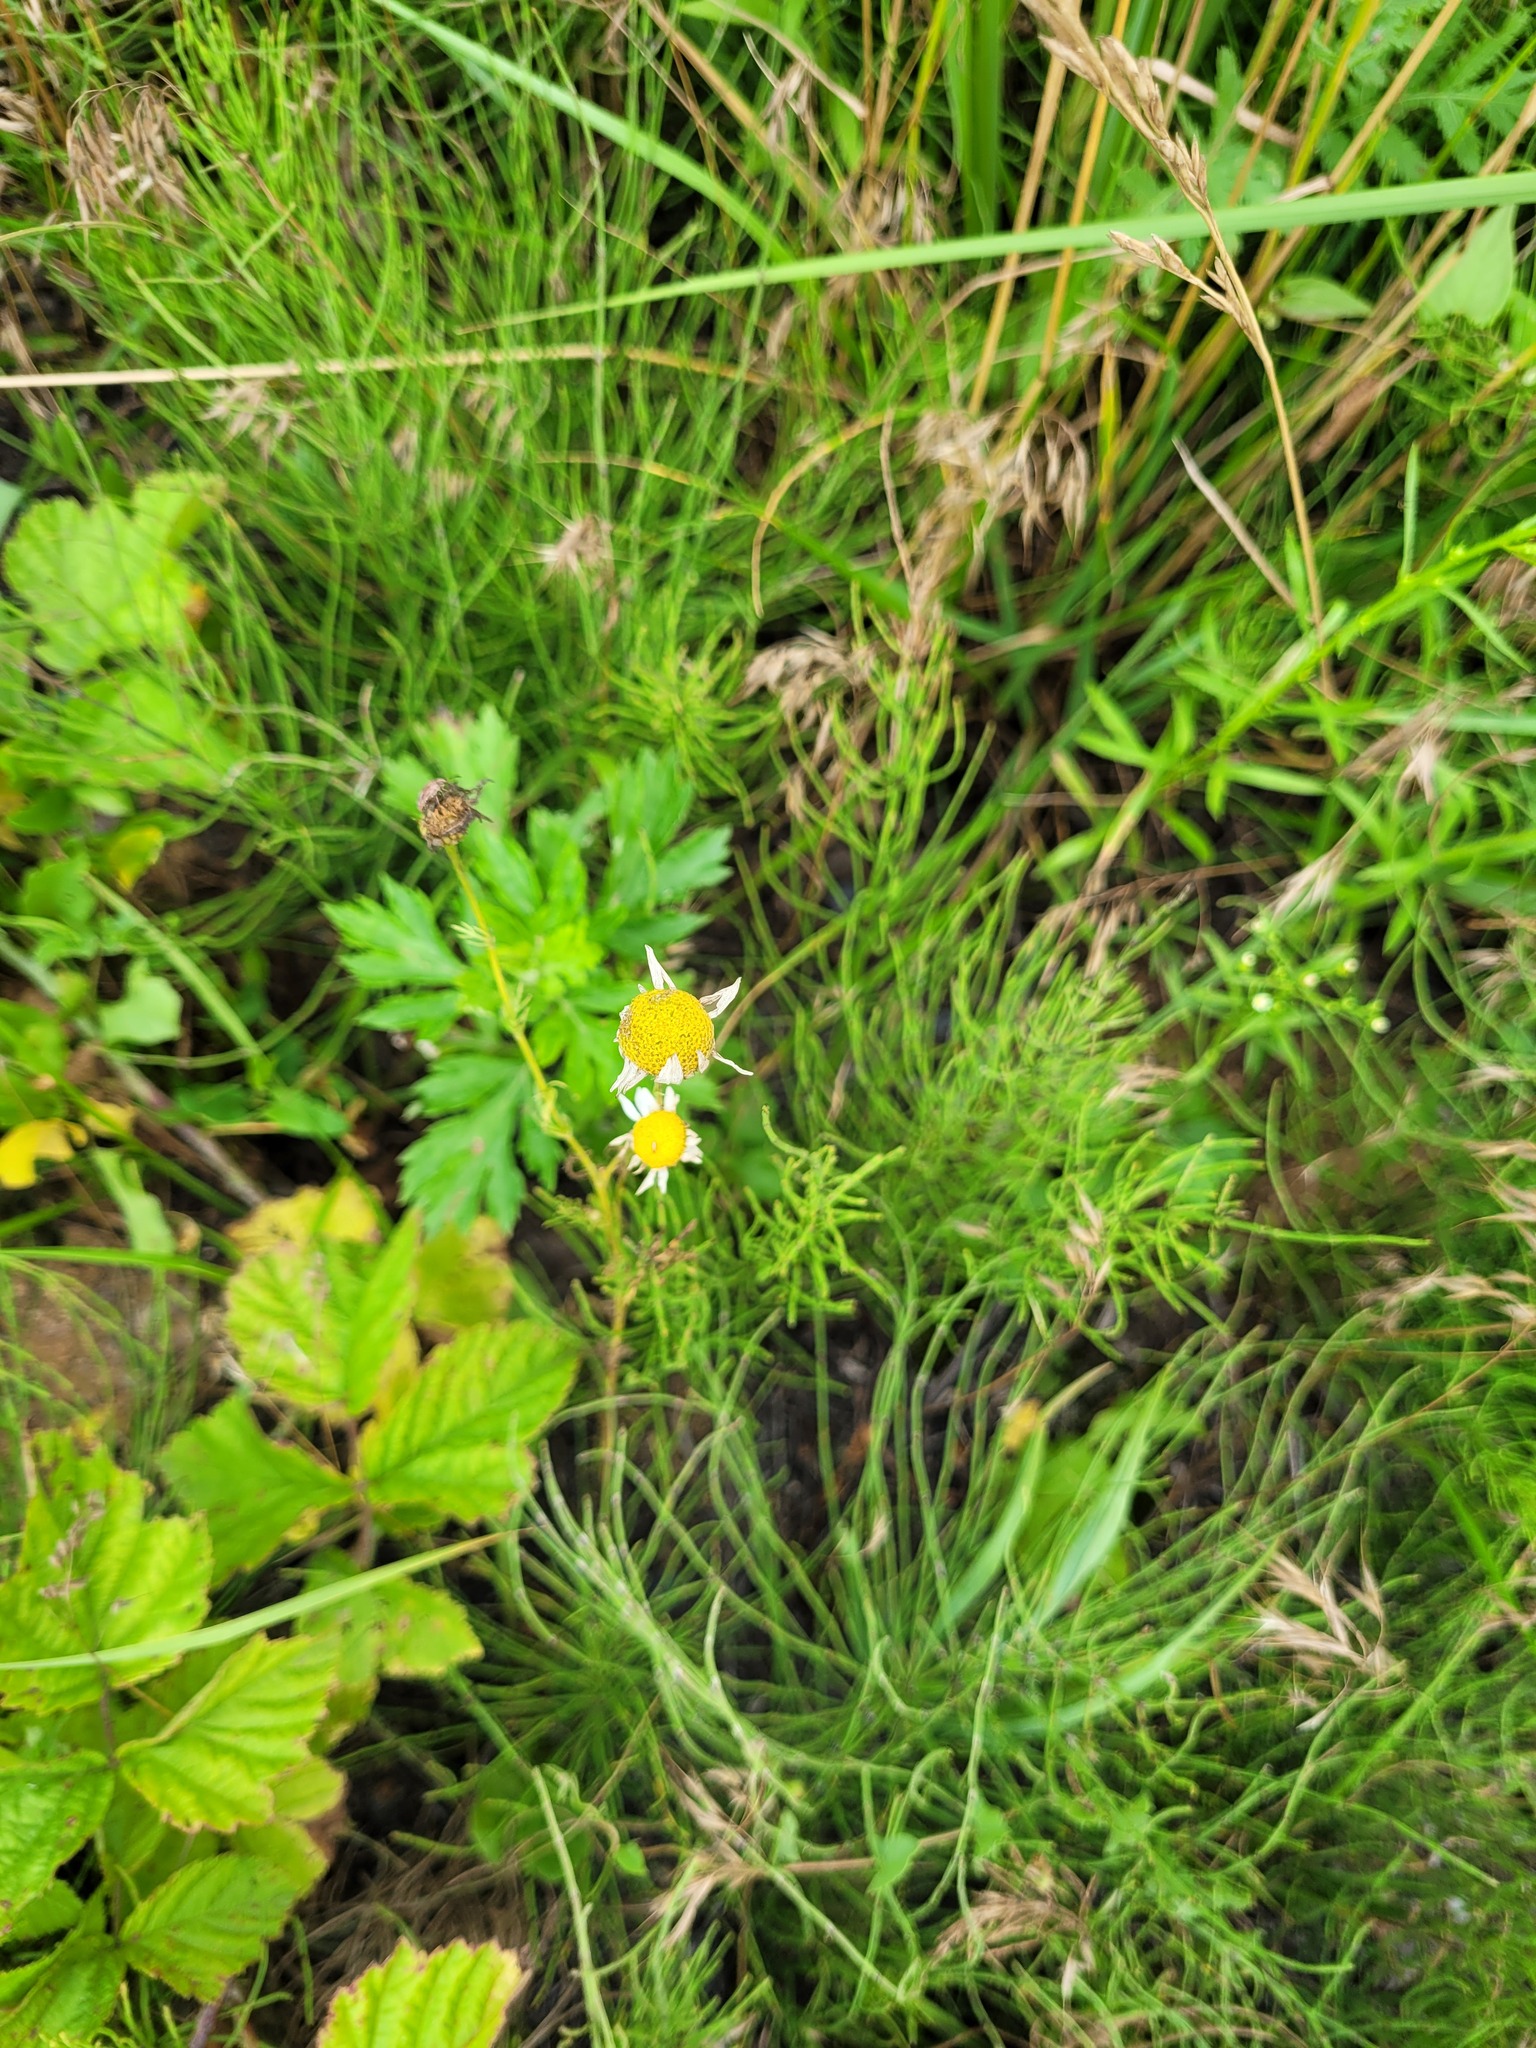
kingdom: Plantae
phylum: Tracheophyta
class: Magnoliopsida
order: Asterales
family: Asteraceae
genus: Tripleurospermum
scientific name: Tripleurospermum inodorum
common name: Scentless mayweed
